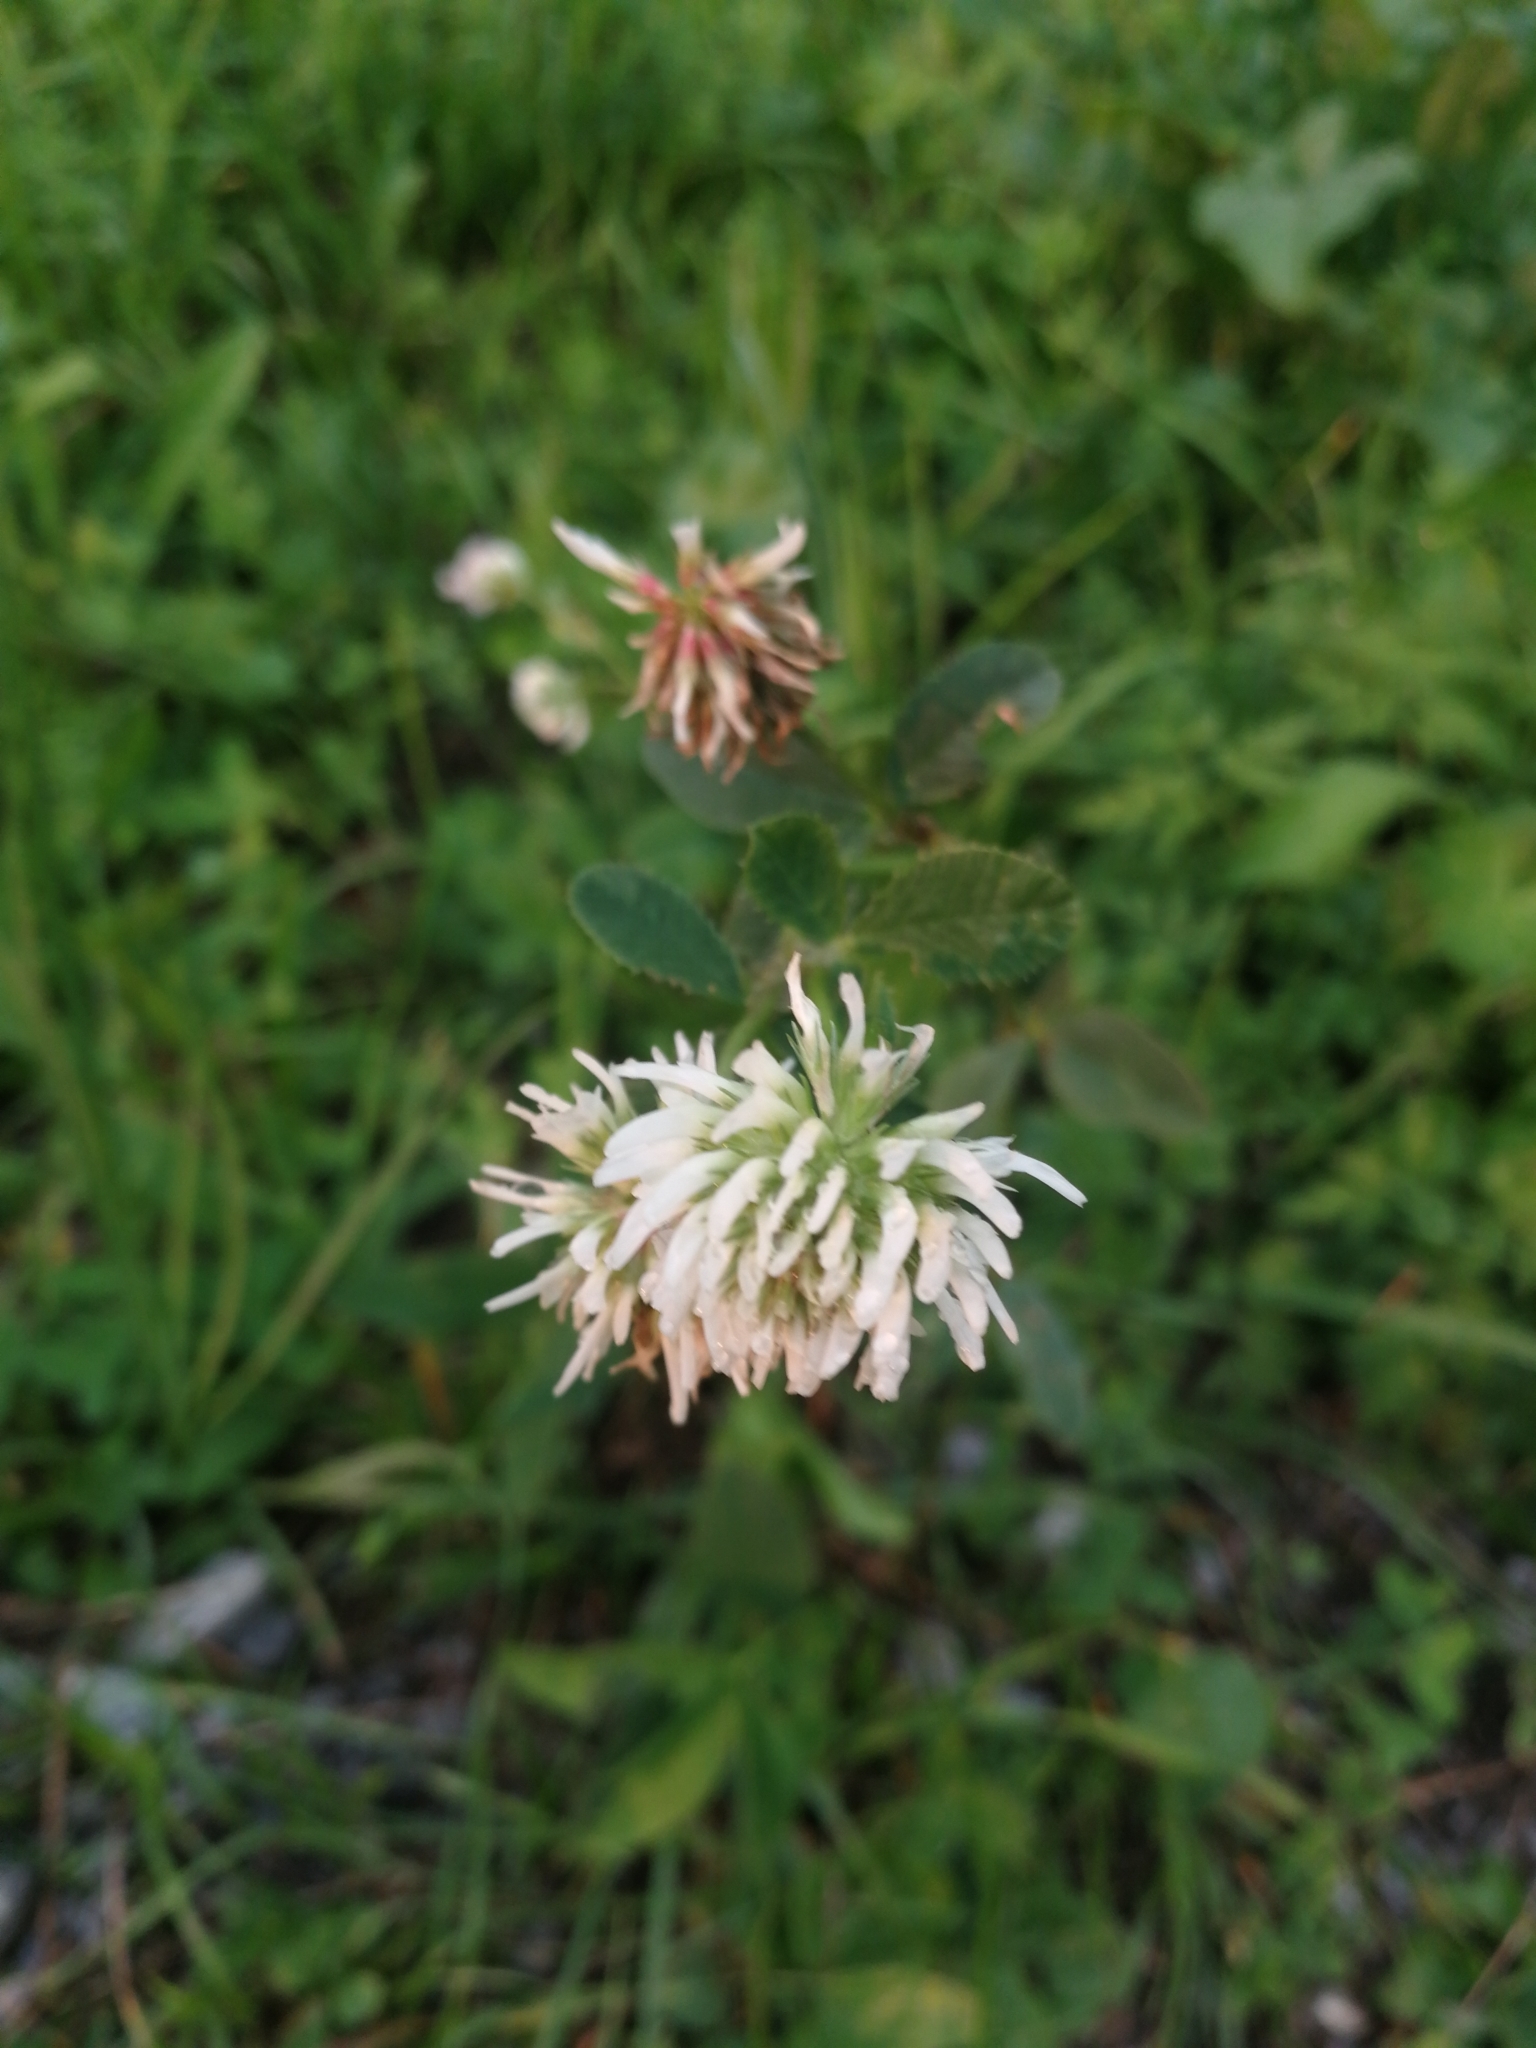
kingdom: Plantae
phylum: Tracheophyta
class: Magnoliopsida
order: Fabales
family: Fabaceae
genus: Trifolium
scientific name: Trifolium montanum
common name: Mountain clover
